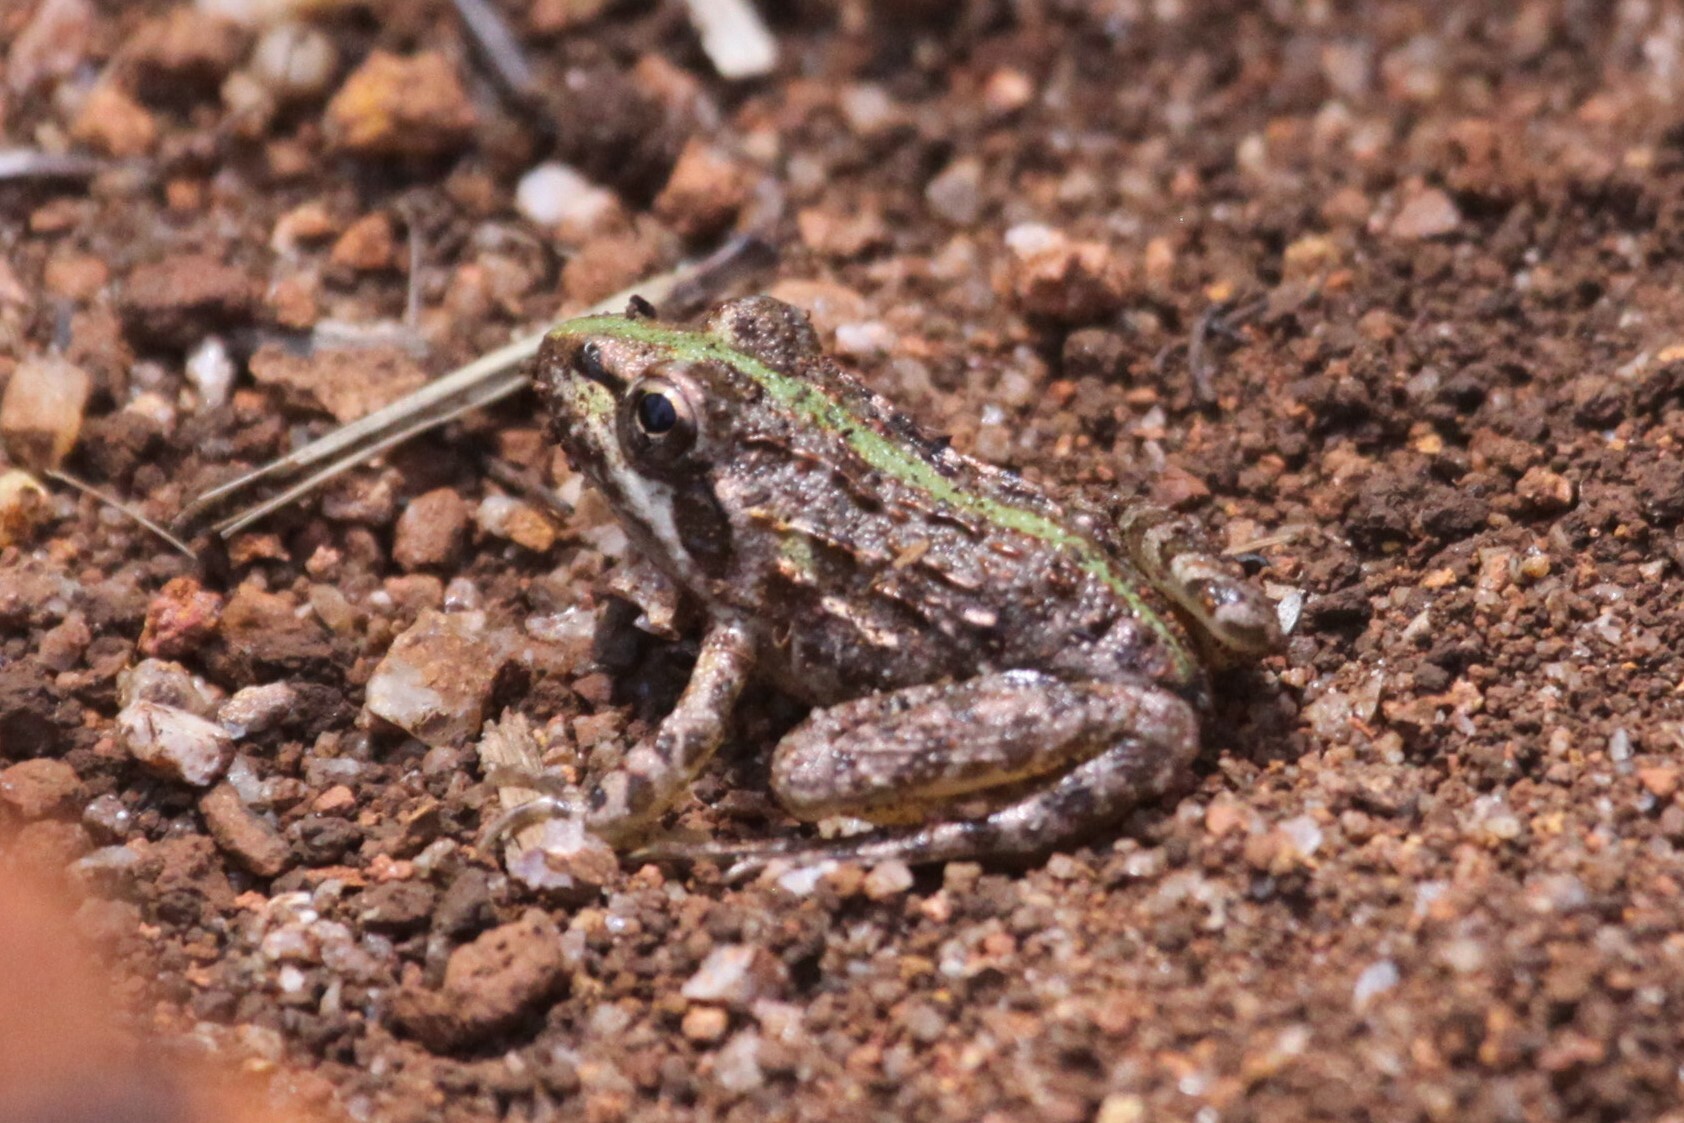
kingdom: Animalia
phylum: Chordata
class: Amphibia
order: Anura
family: Pyxicephalidae
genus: Amietia
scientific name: Amietia delalandii
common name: Delalande's river frog
